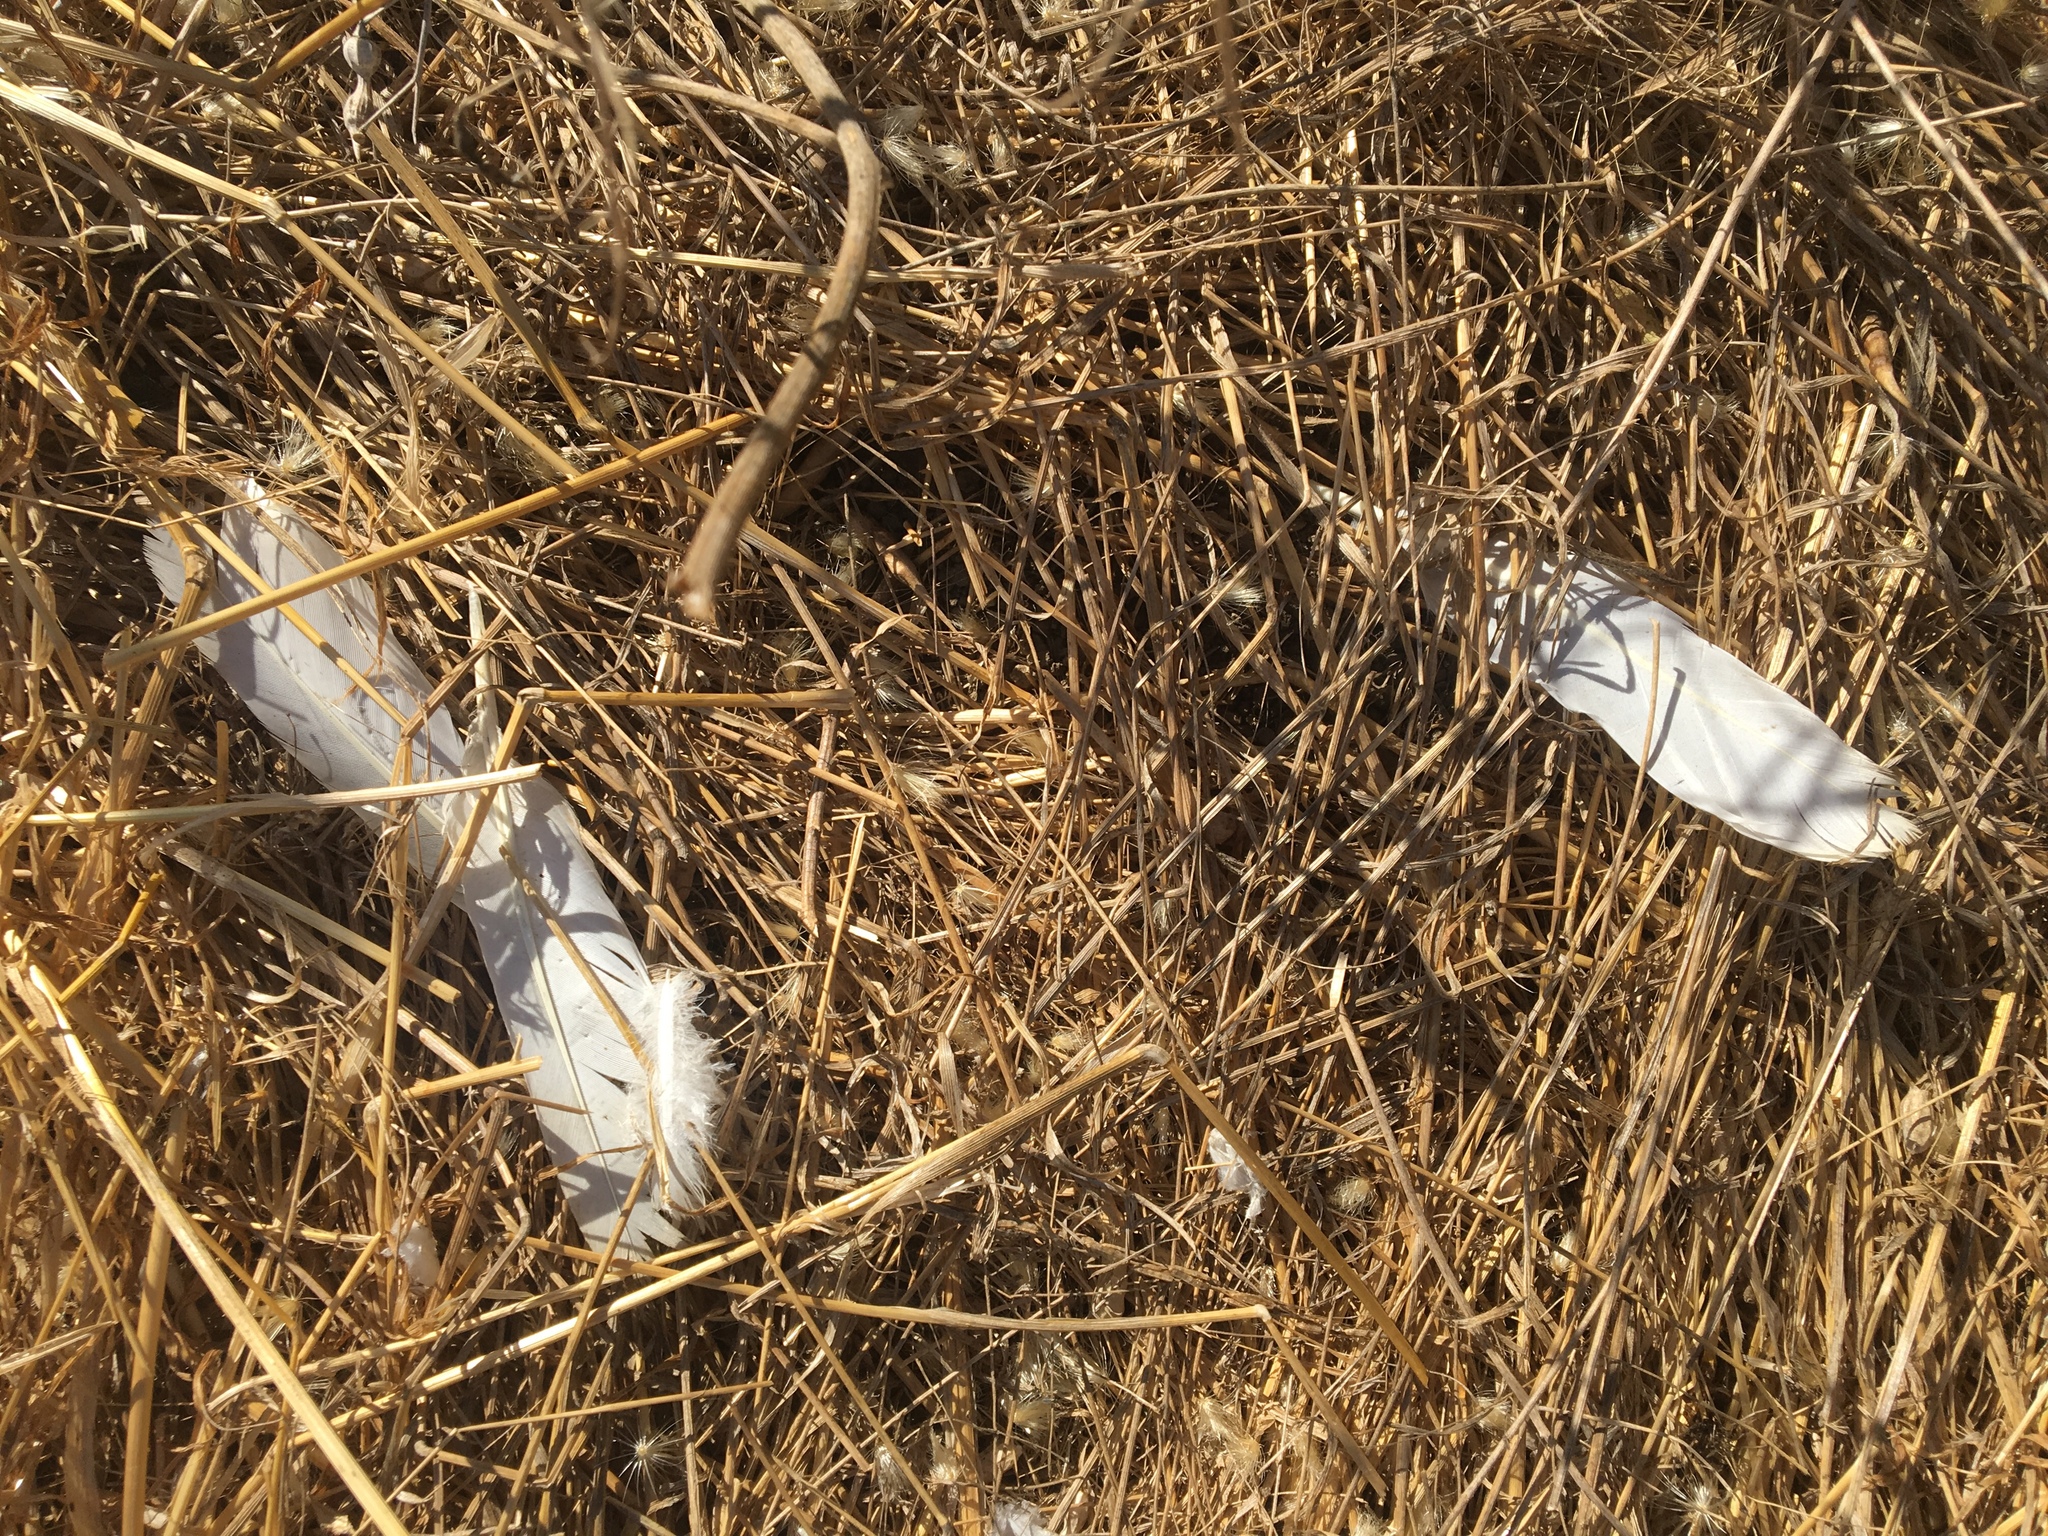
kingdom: Animalia
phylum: Chordata
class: Aves
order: Columbiformes
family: Columbidae
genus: Columba
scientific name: Columba livia
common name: Rock pigeon
